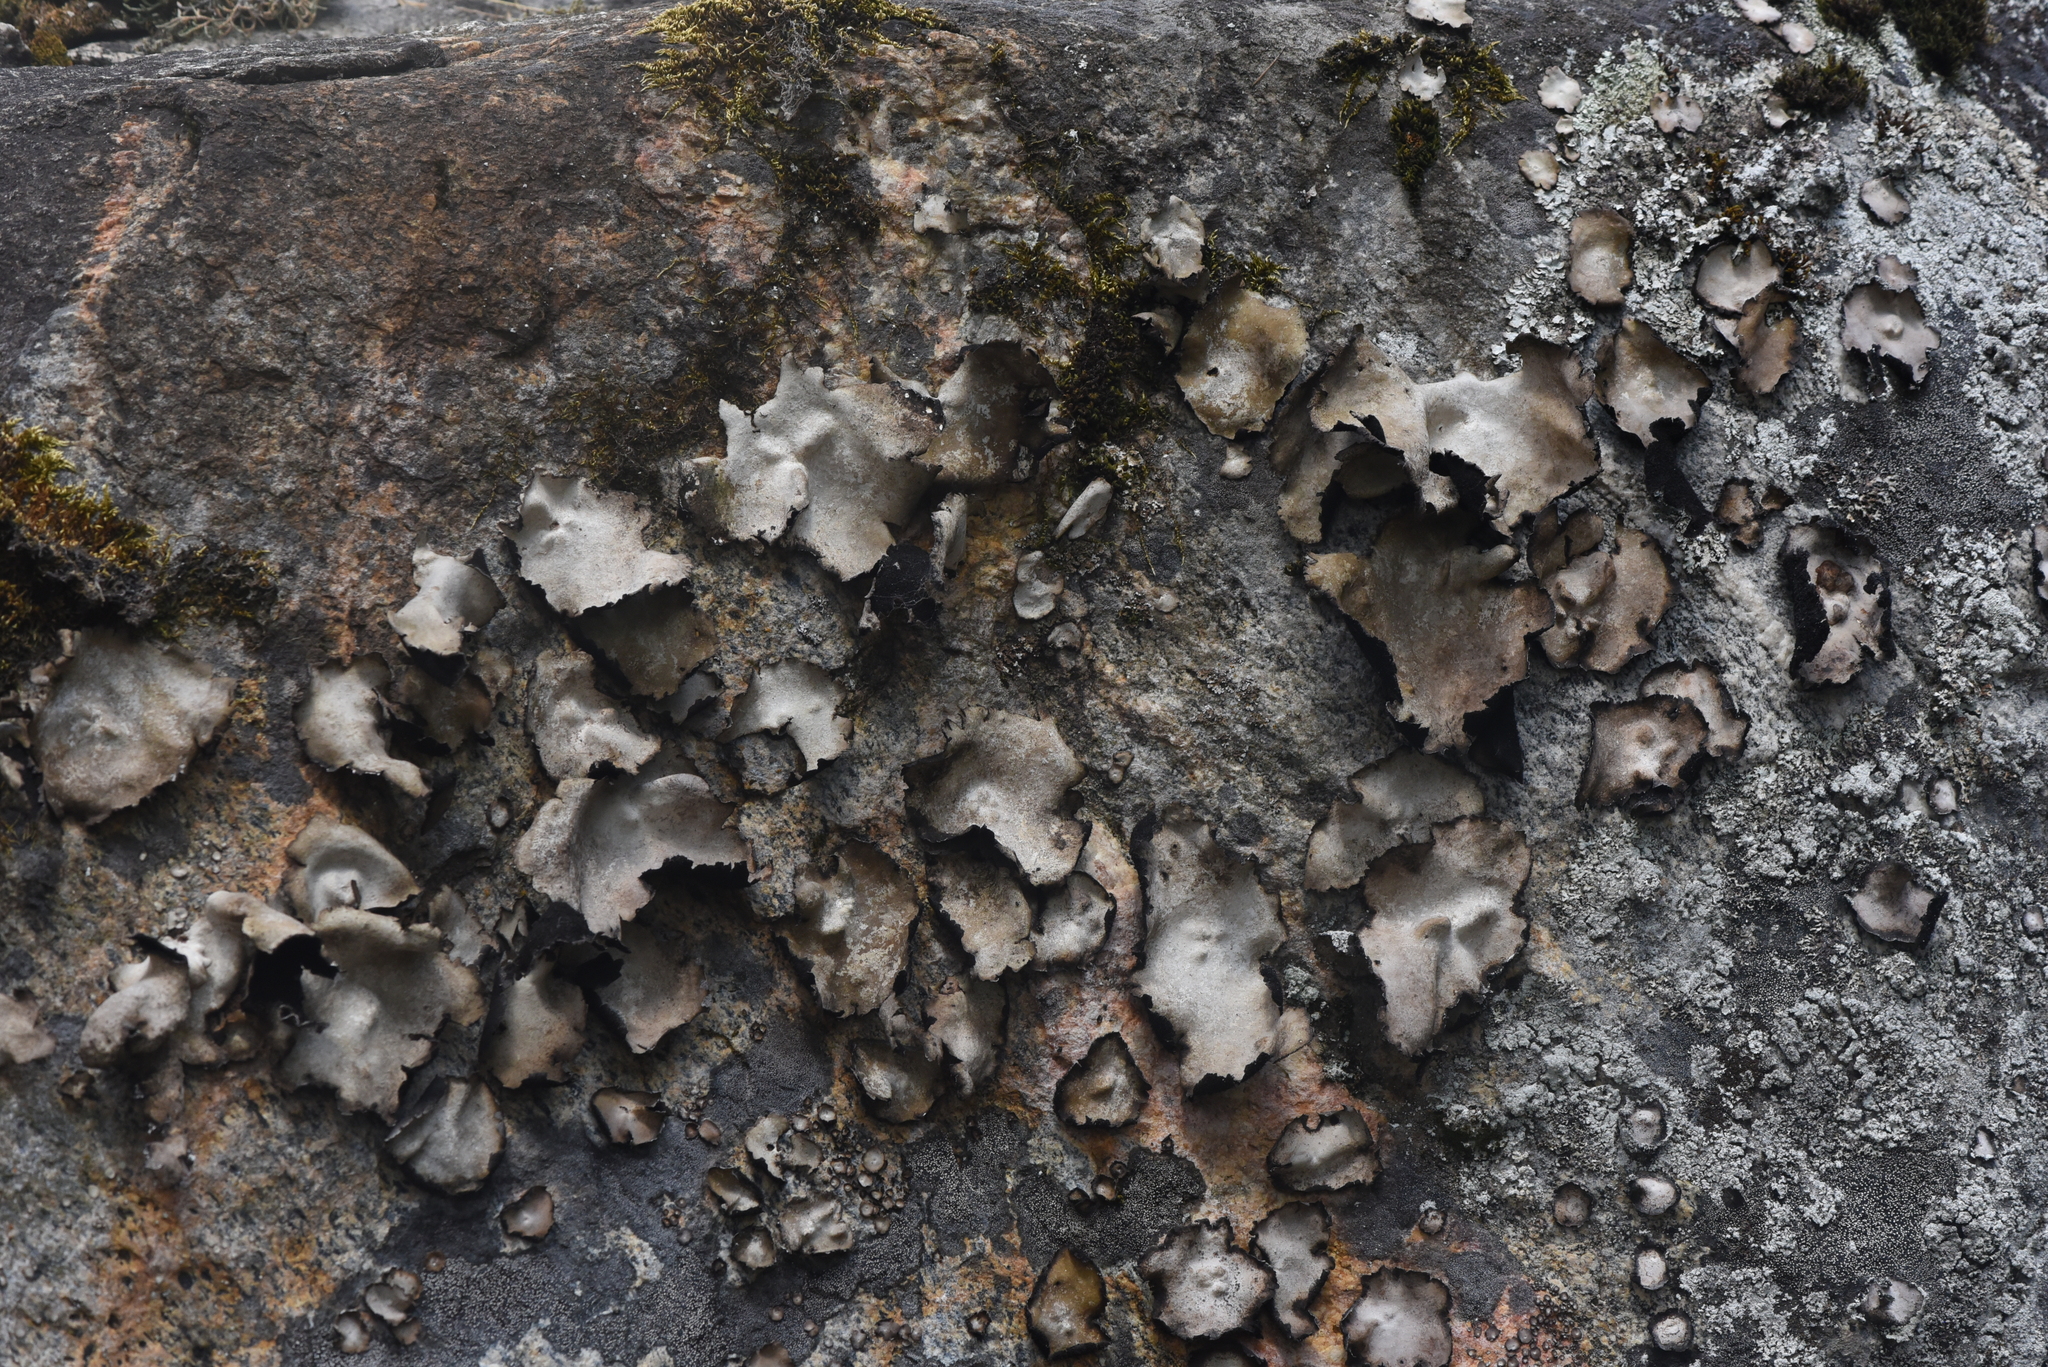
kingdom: Fungi
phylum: Ascomycota
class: Lecanoromycetes
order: Umbilicariales
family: Umbilicariaceae
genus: Umbilicaria
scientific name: Umbilicaria americana
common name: Frosted rock tripe
